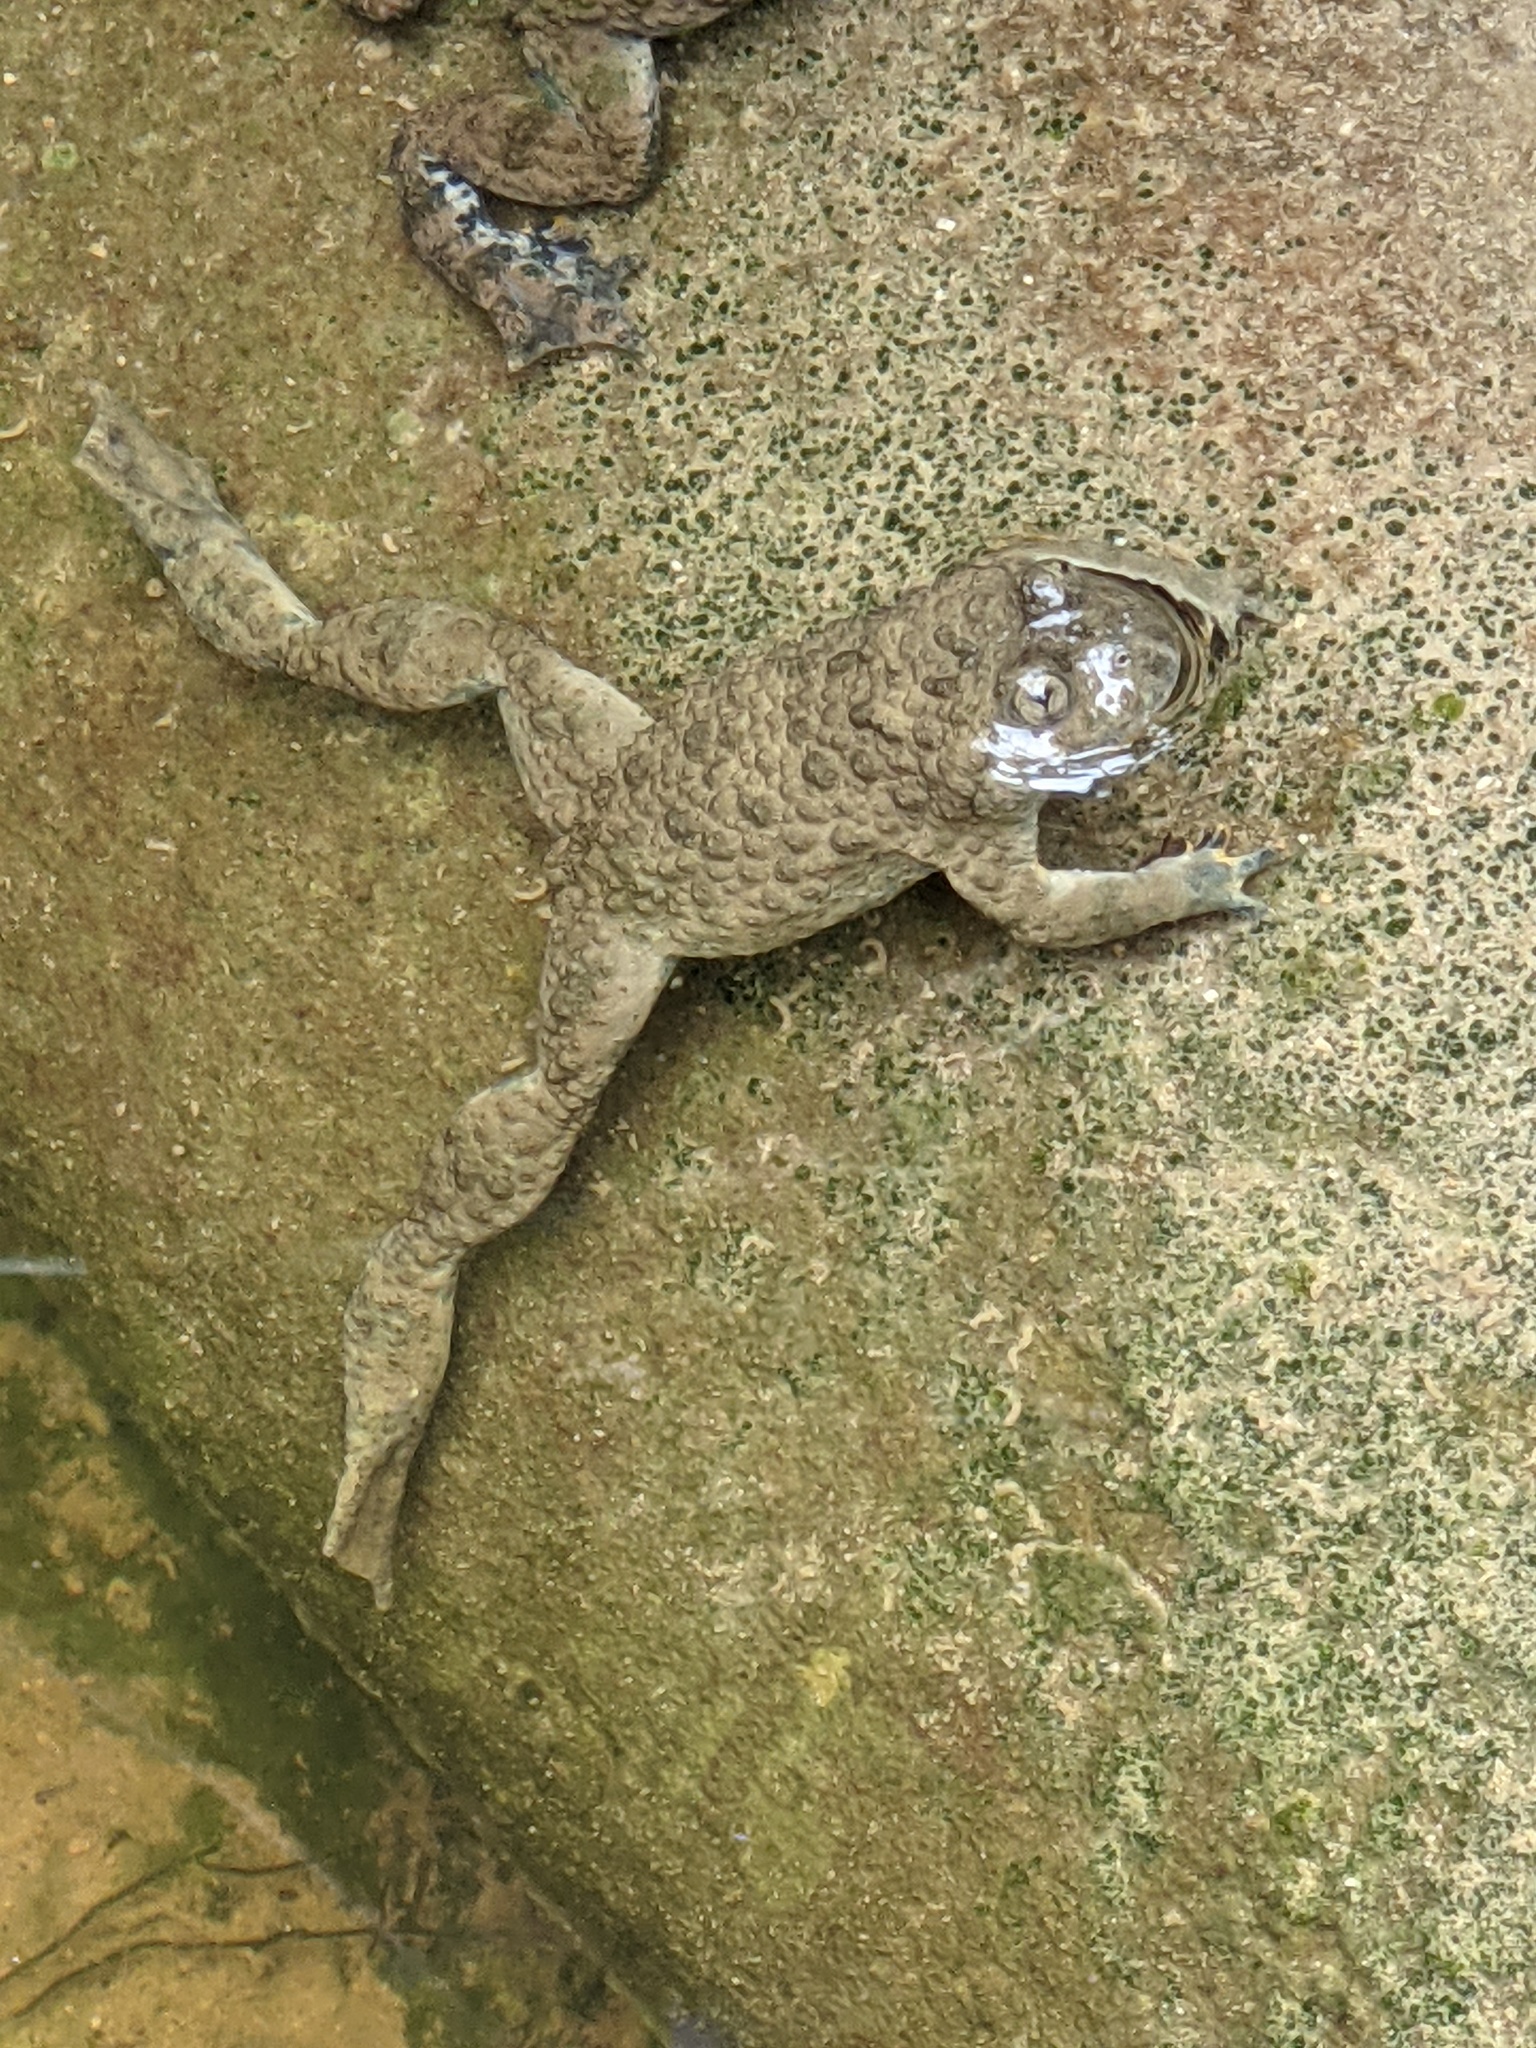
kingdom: Animalia
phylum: Chordata
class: Amphibia
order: Anura
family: Bombinatoridae
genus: Bombina
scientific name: Bombina variegata
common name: Yellow-bellied toad
